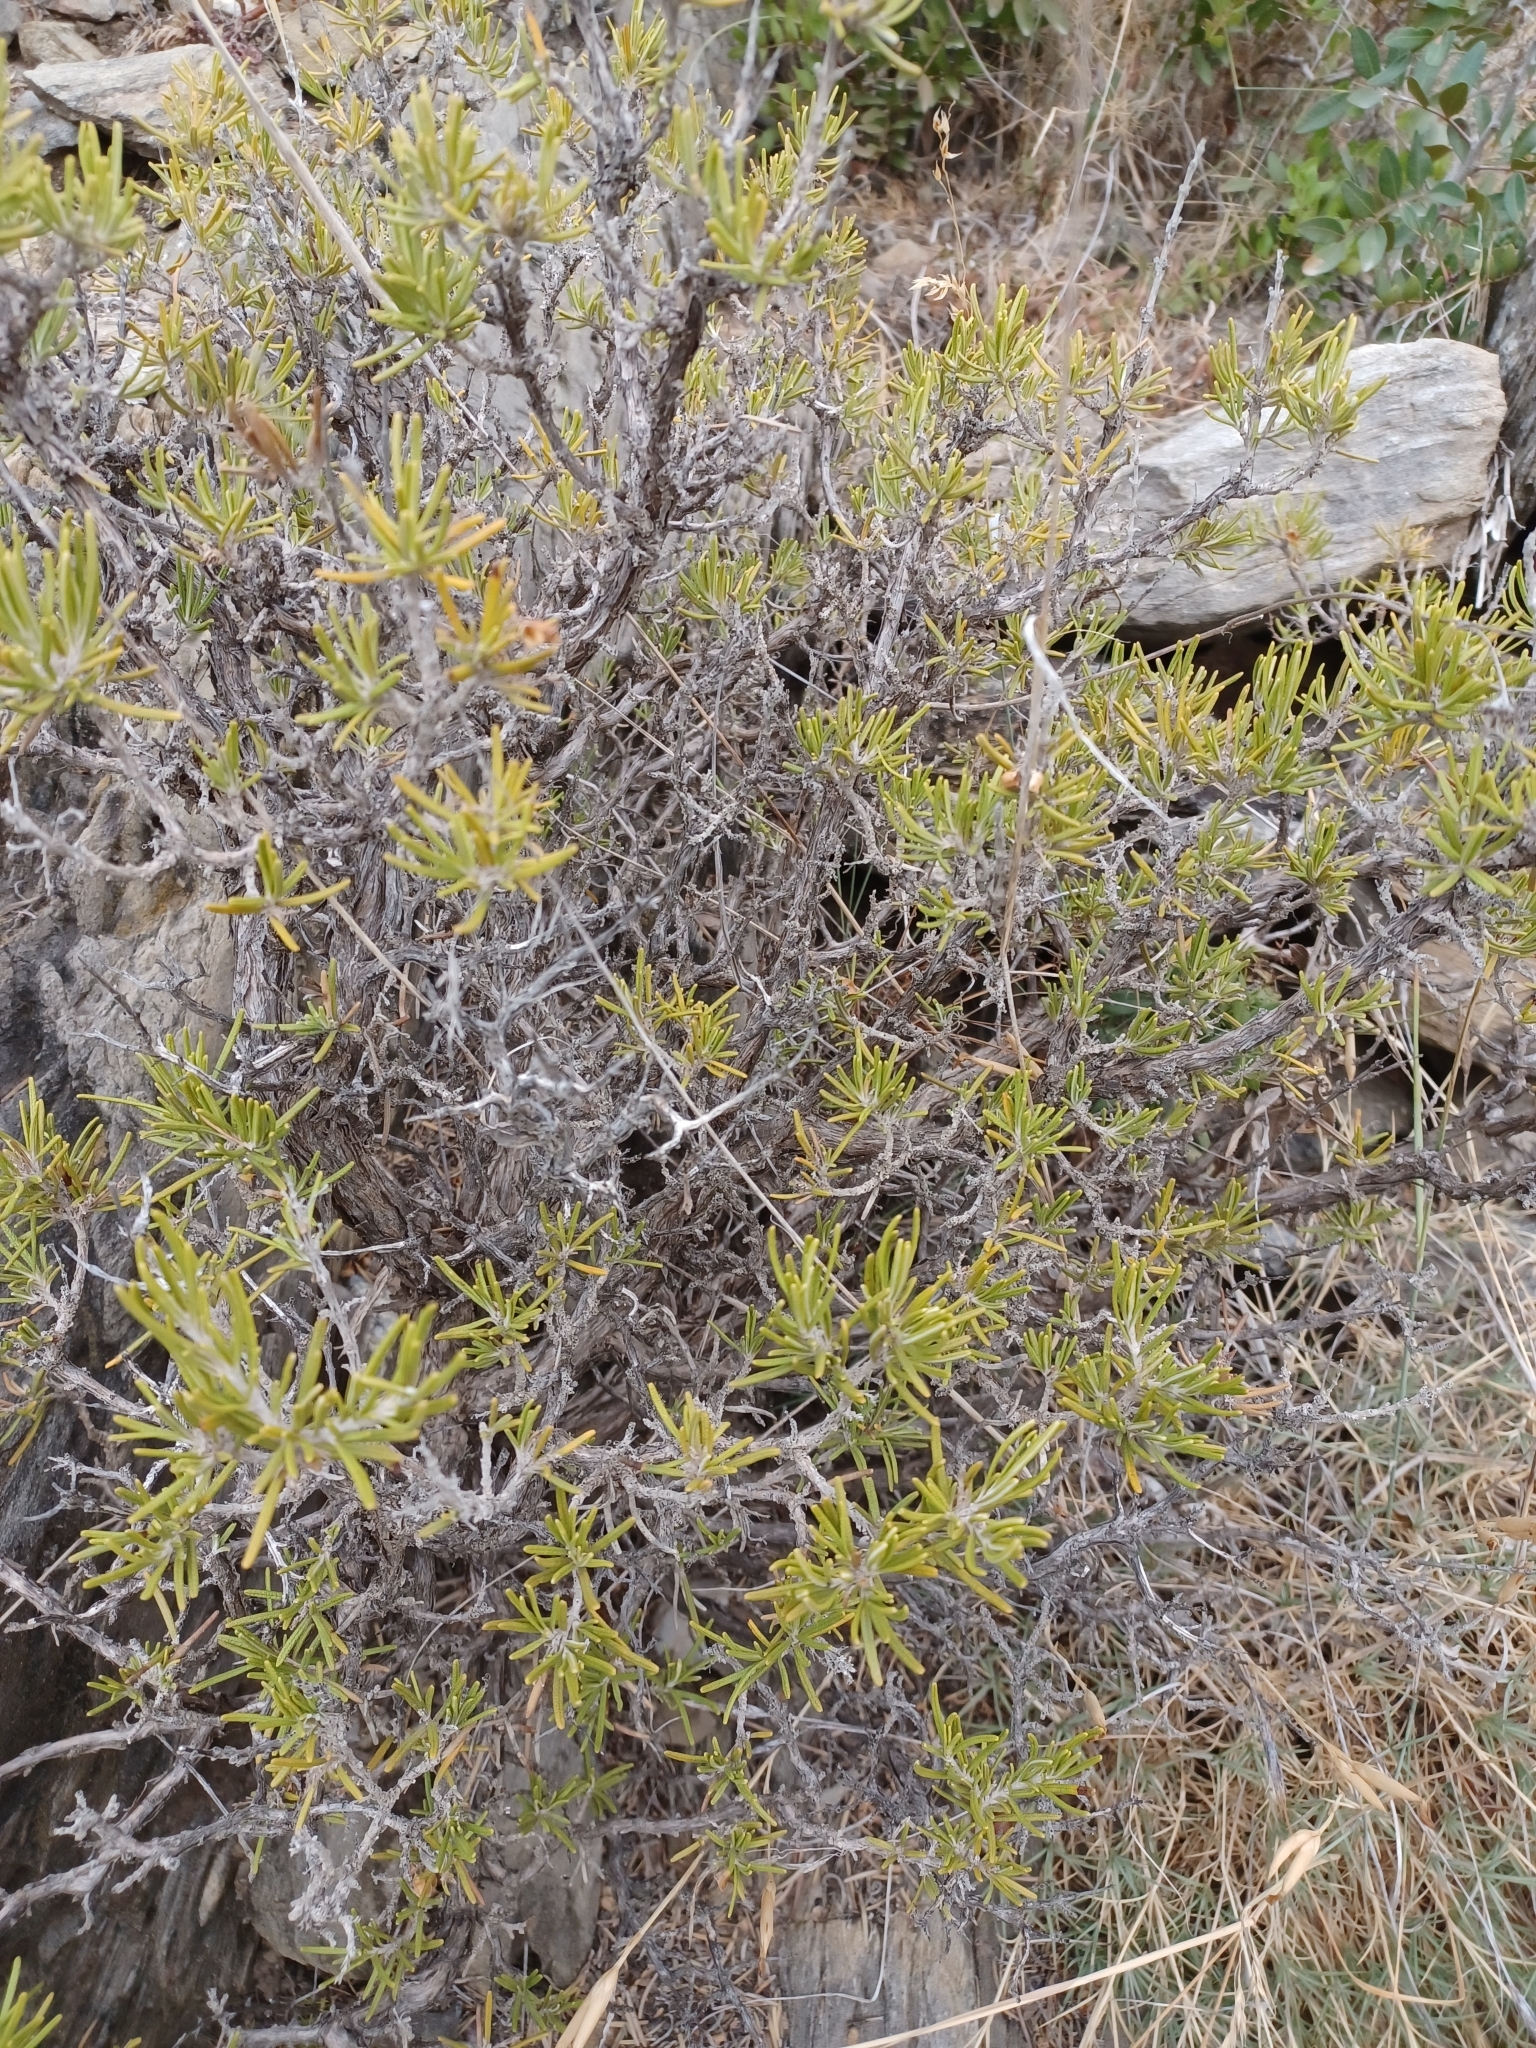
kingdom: Plantae
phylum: Tracheophyta
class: Magnoliopsida
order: Lamiales
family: Lamiaceae
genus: Salvia
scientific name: Salvia rosmarinus
